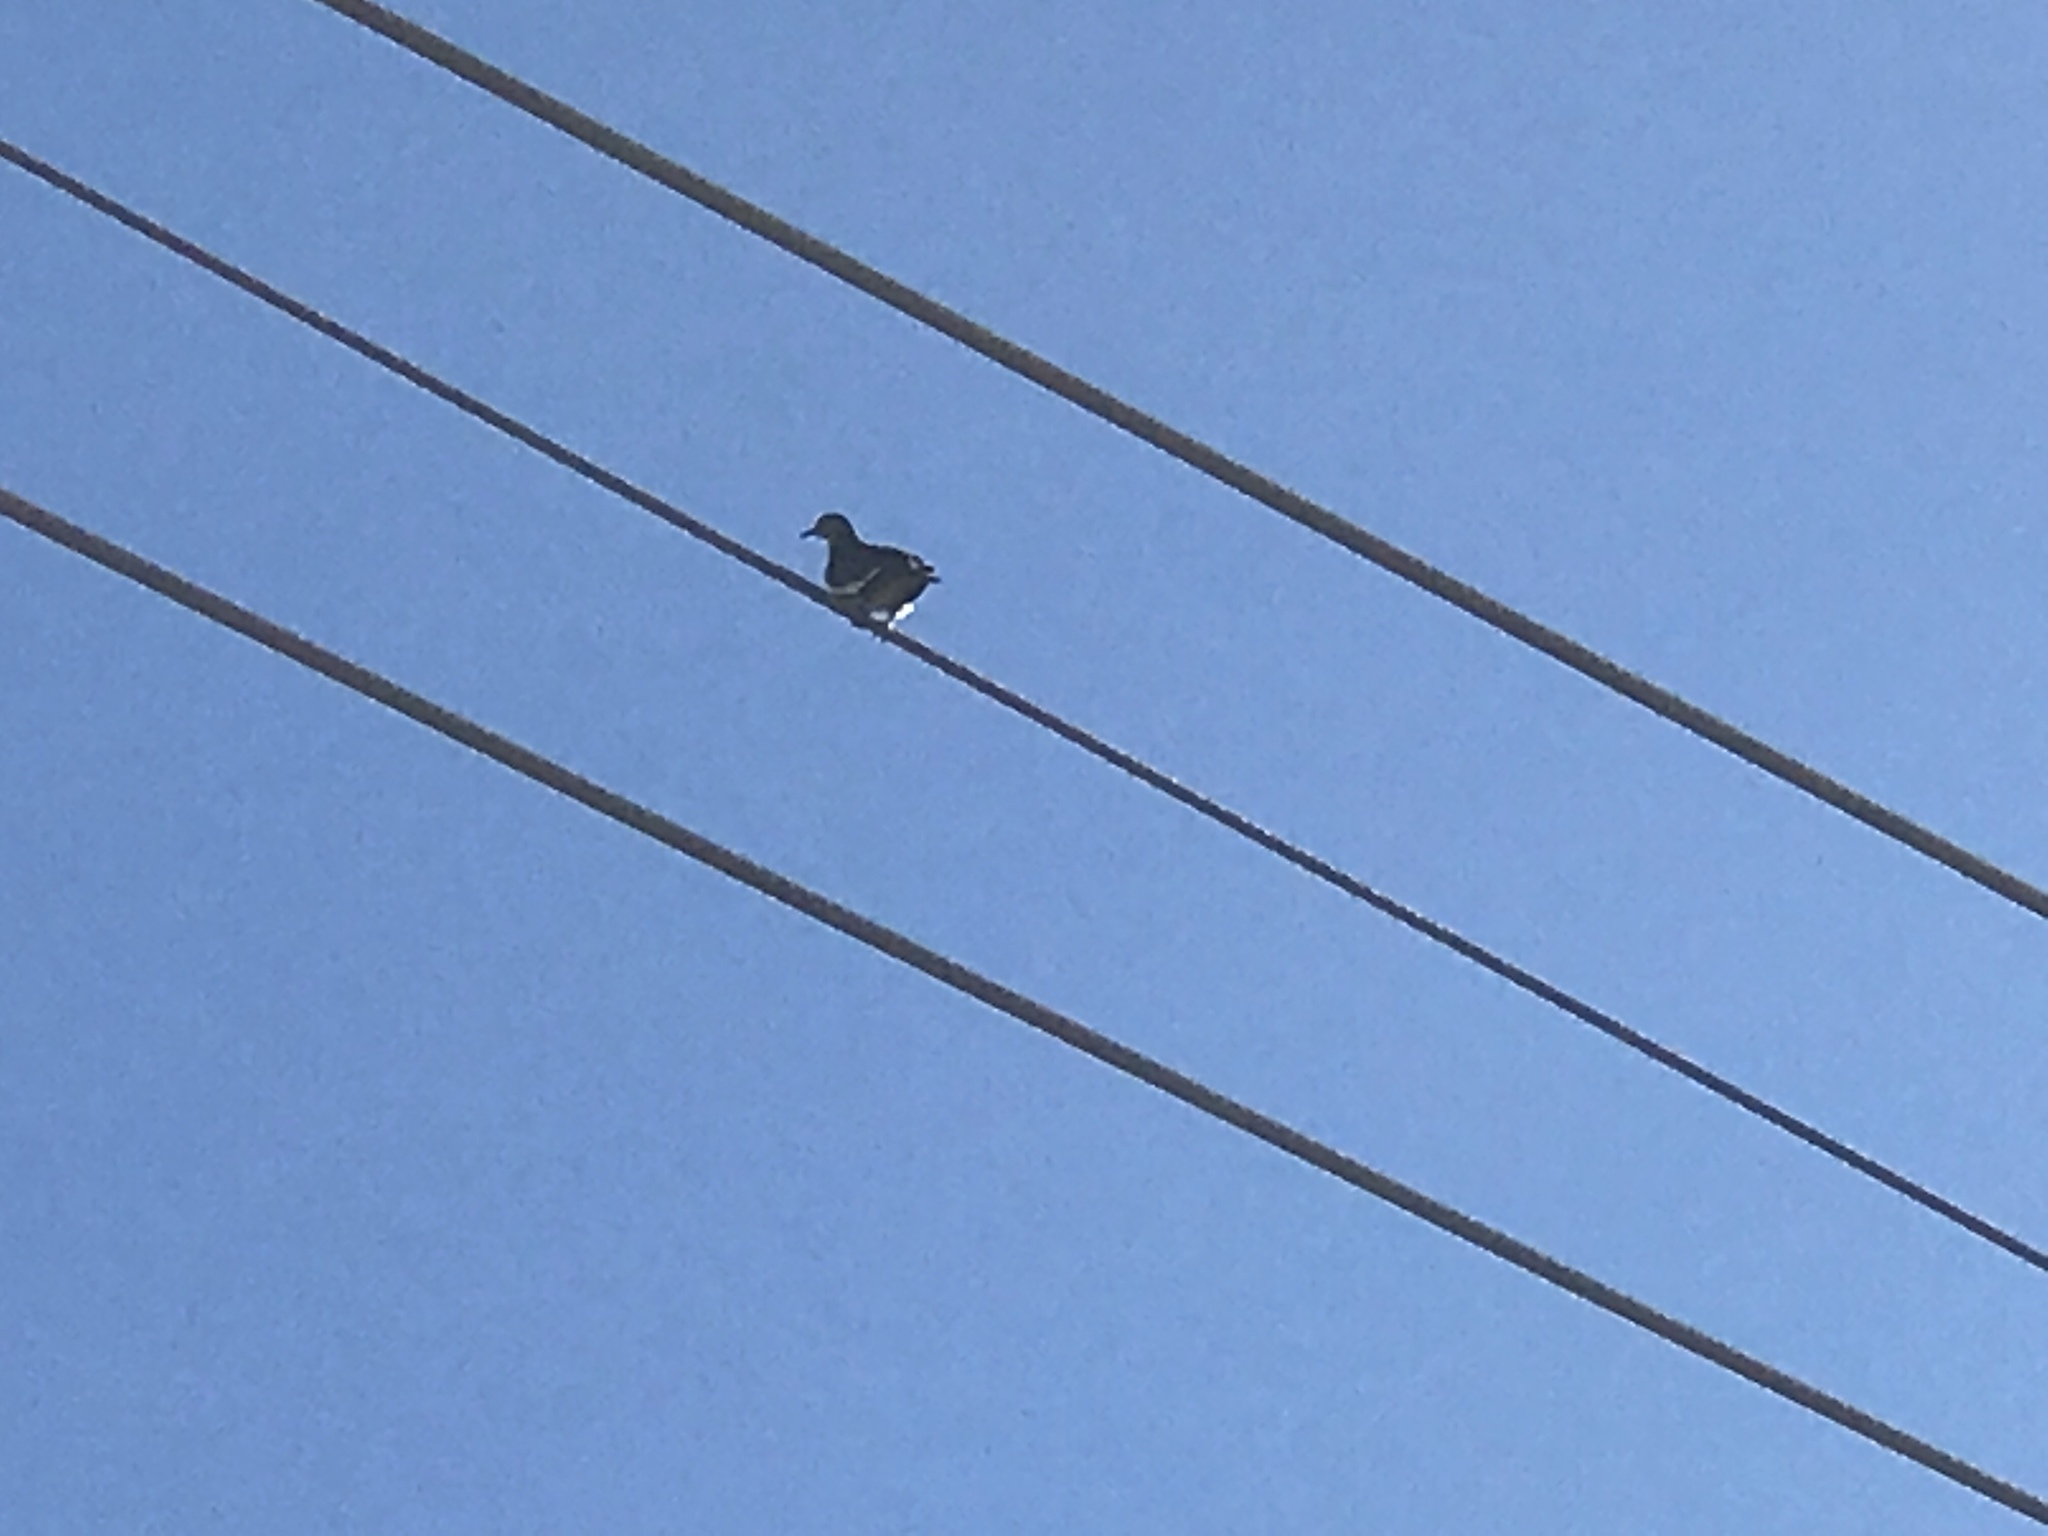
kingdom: Animalia
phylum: Chordata
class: Aves
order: Columbiformes
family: Columbidae
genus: Zenaida
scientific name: Zenaida asiatica
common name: White-winged dove
